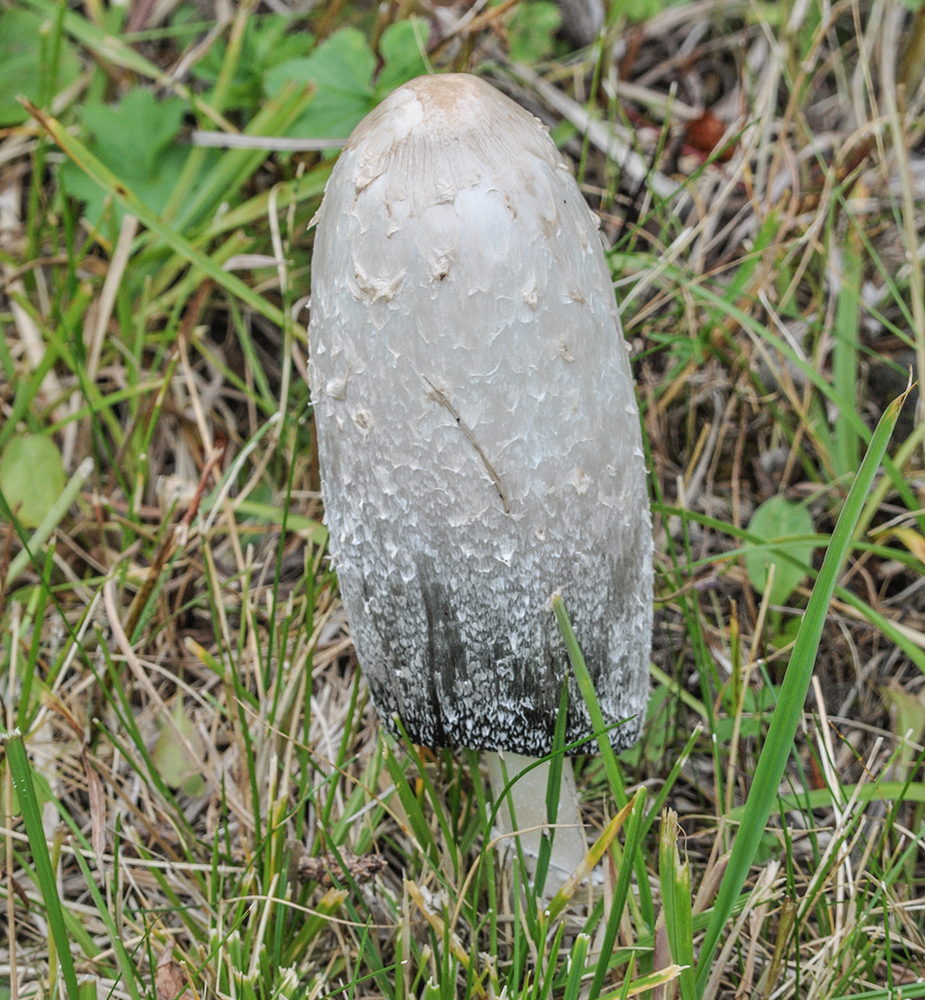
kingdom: Fungi
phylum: Basidiomycota
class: Agaricomycetes
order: Agaricales
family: Agaricaceae
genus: Coprinus
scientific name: Coprinus comatus
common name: Lawyer's wig
